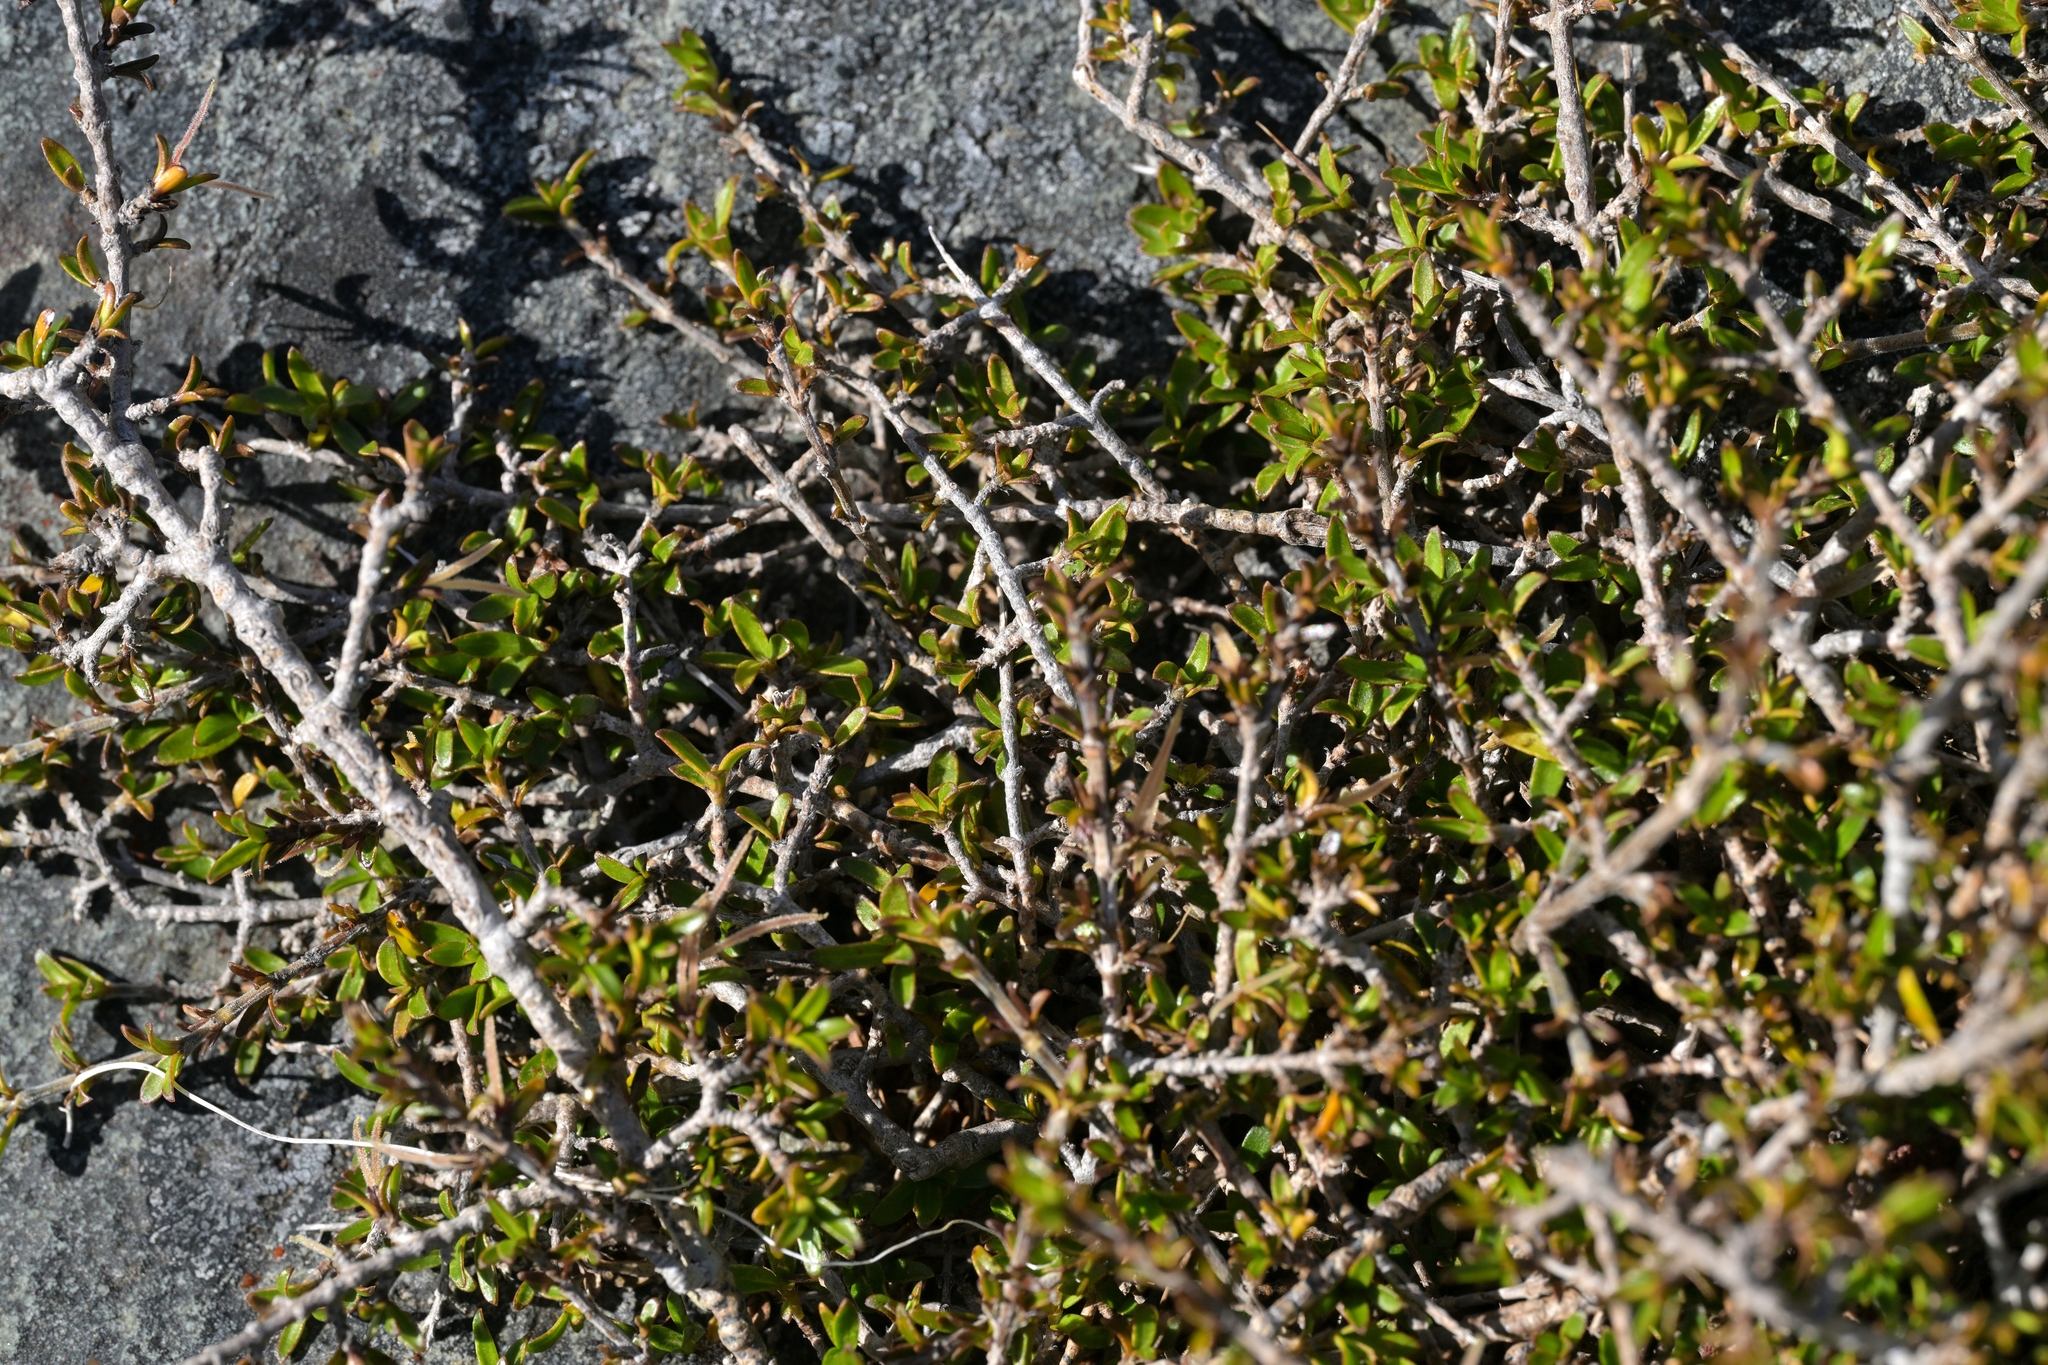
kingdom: Plantae
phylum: Tracheophyta
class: Magnoliopsida
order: Gentianales
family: Rubiaceae
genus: Coprosma
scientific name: Coprosma cheesemanii
